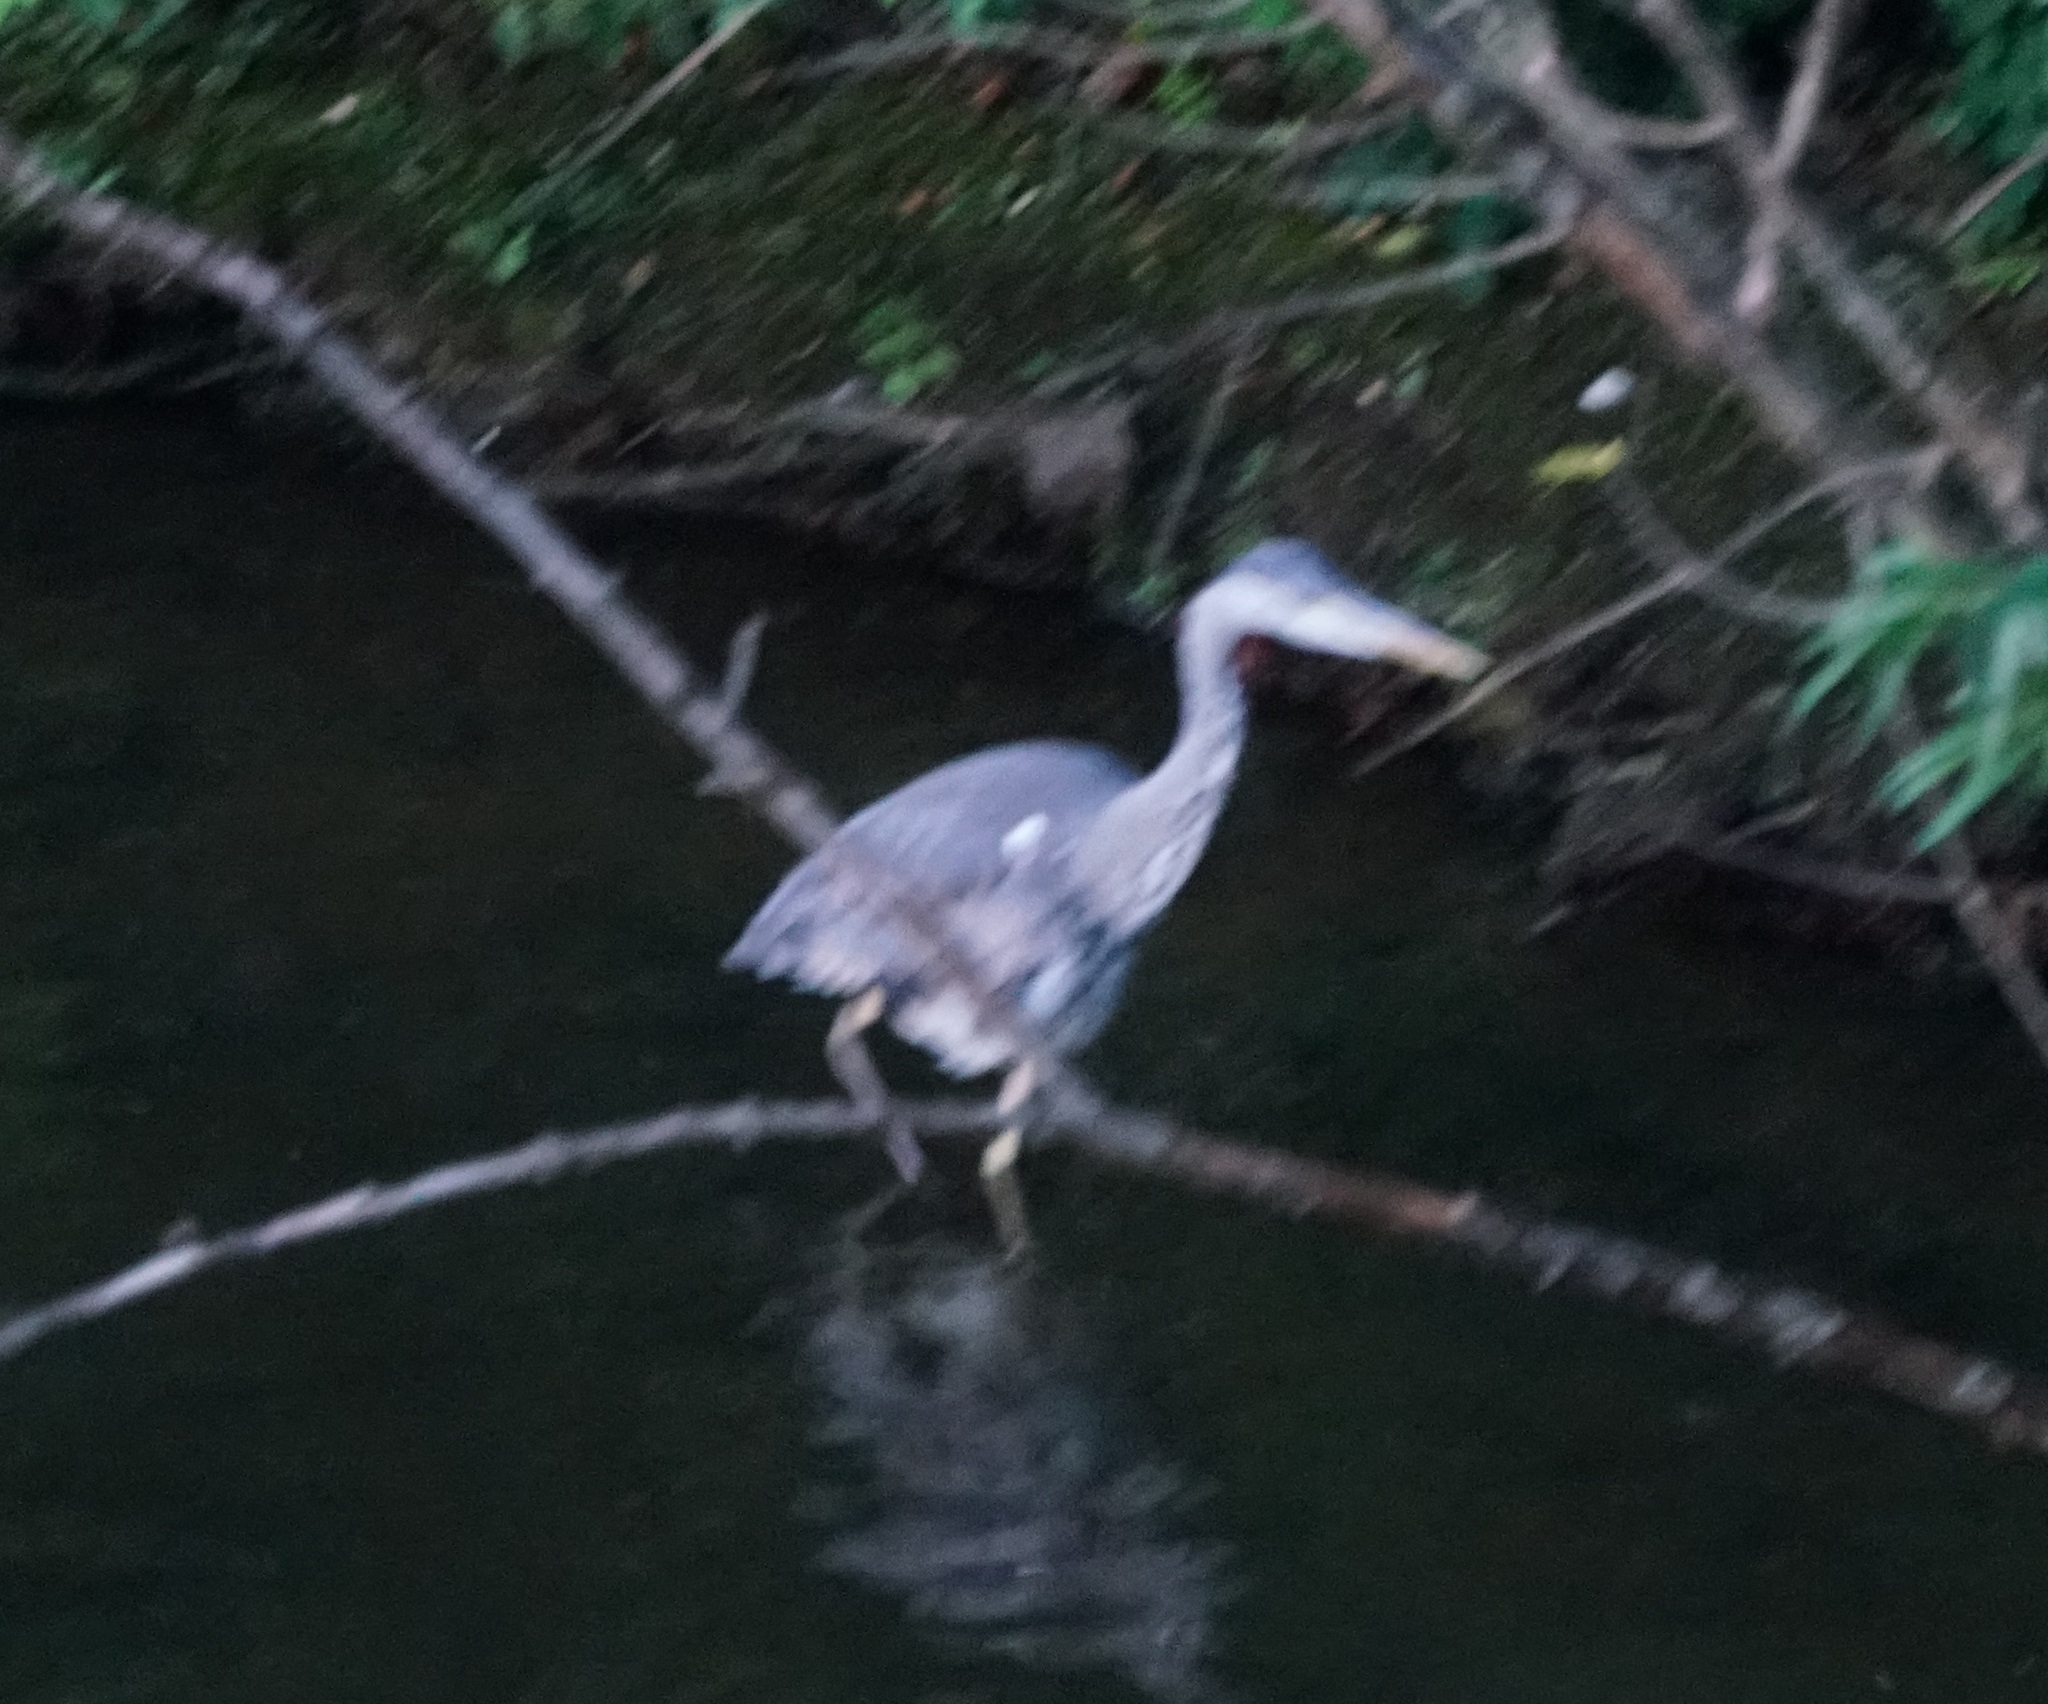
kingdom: Animalia
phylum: Chordata
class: Aves
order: Pelecaniformes
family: Ardeidae
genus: Ardea
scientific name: Ardea cinerea
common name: Grey heron
